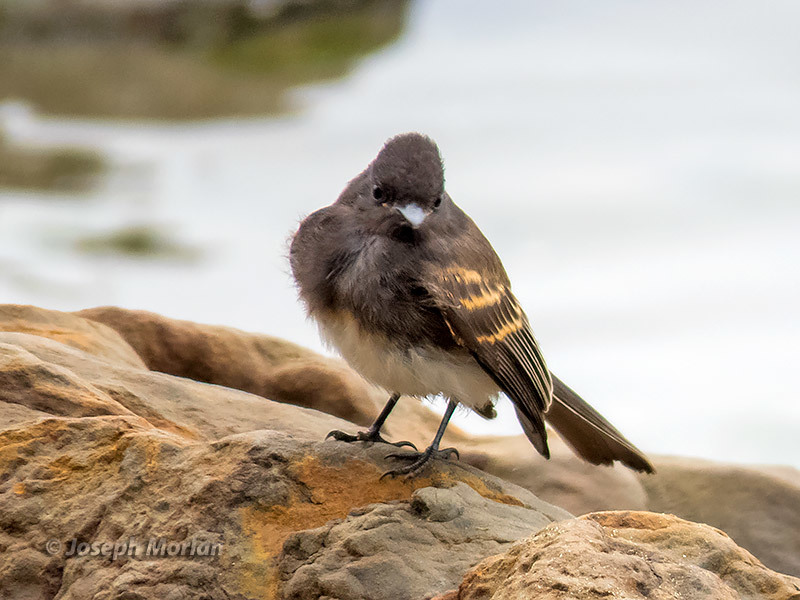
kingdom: Animalia
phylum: Chordata
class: Aves
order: Passeriformes
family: Tyrannidae
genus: Sayornis
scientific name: Sayornis nigricans
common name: Black phoebe
